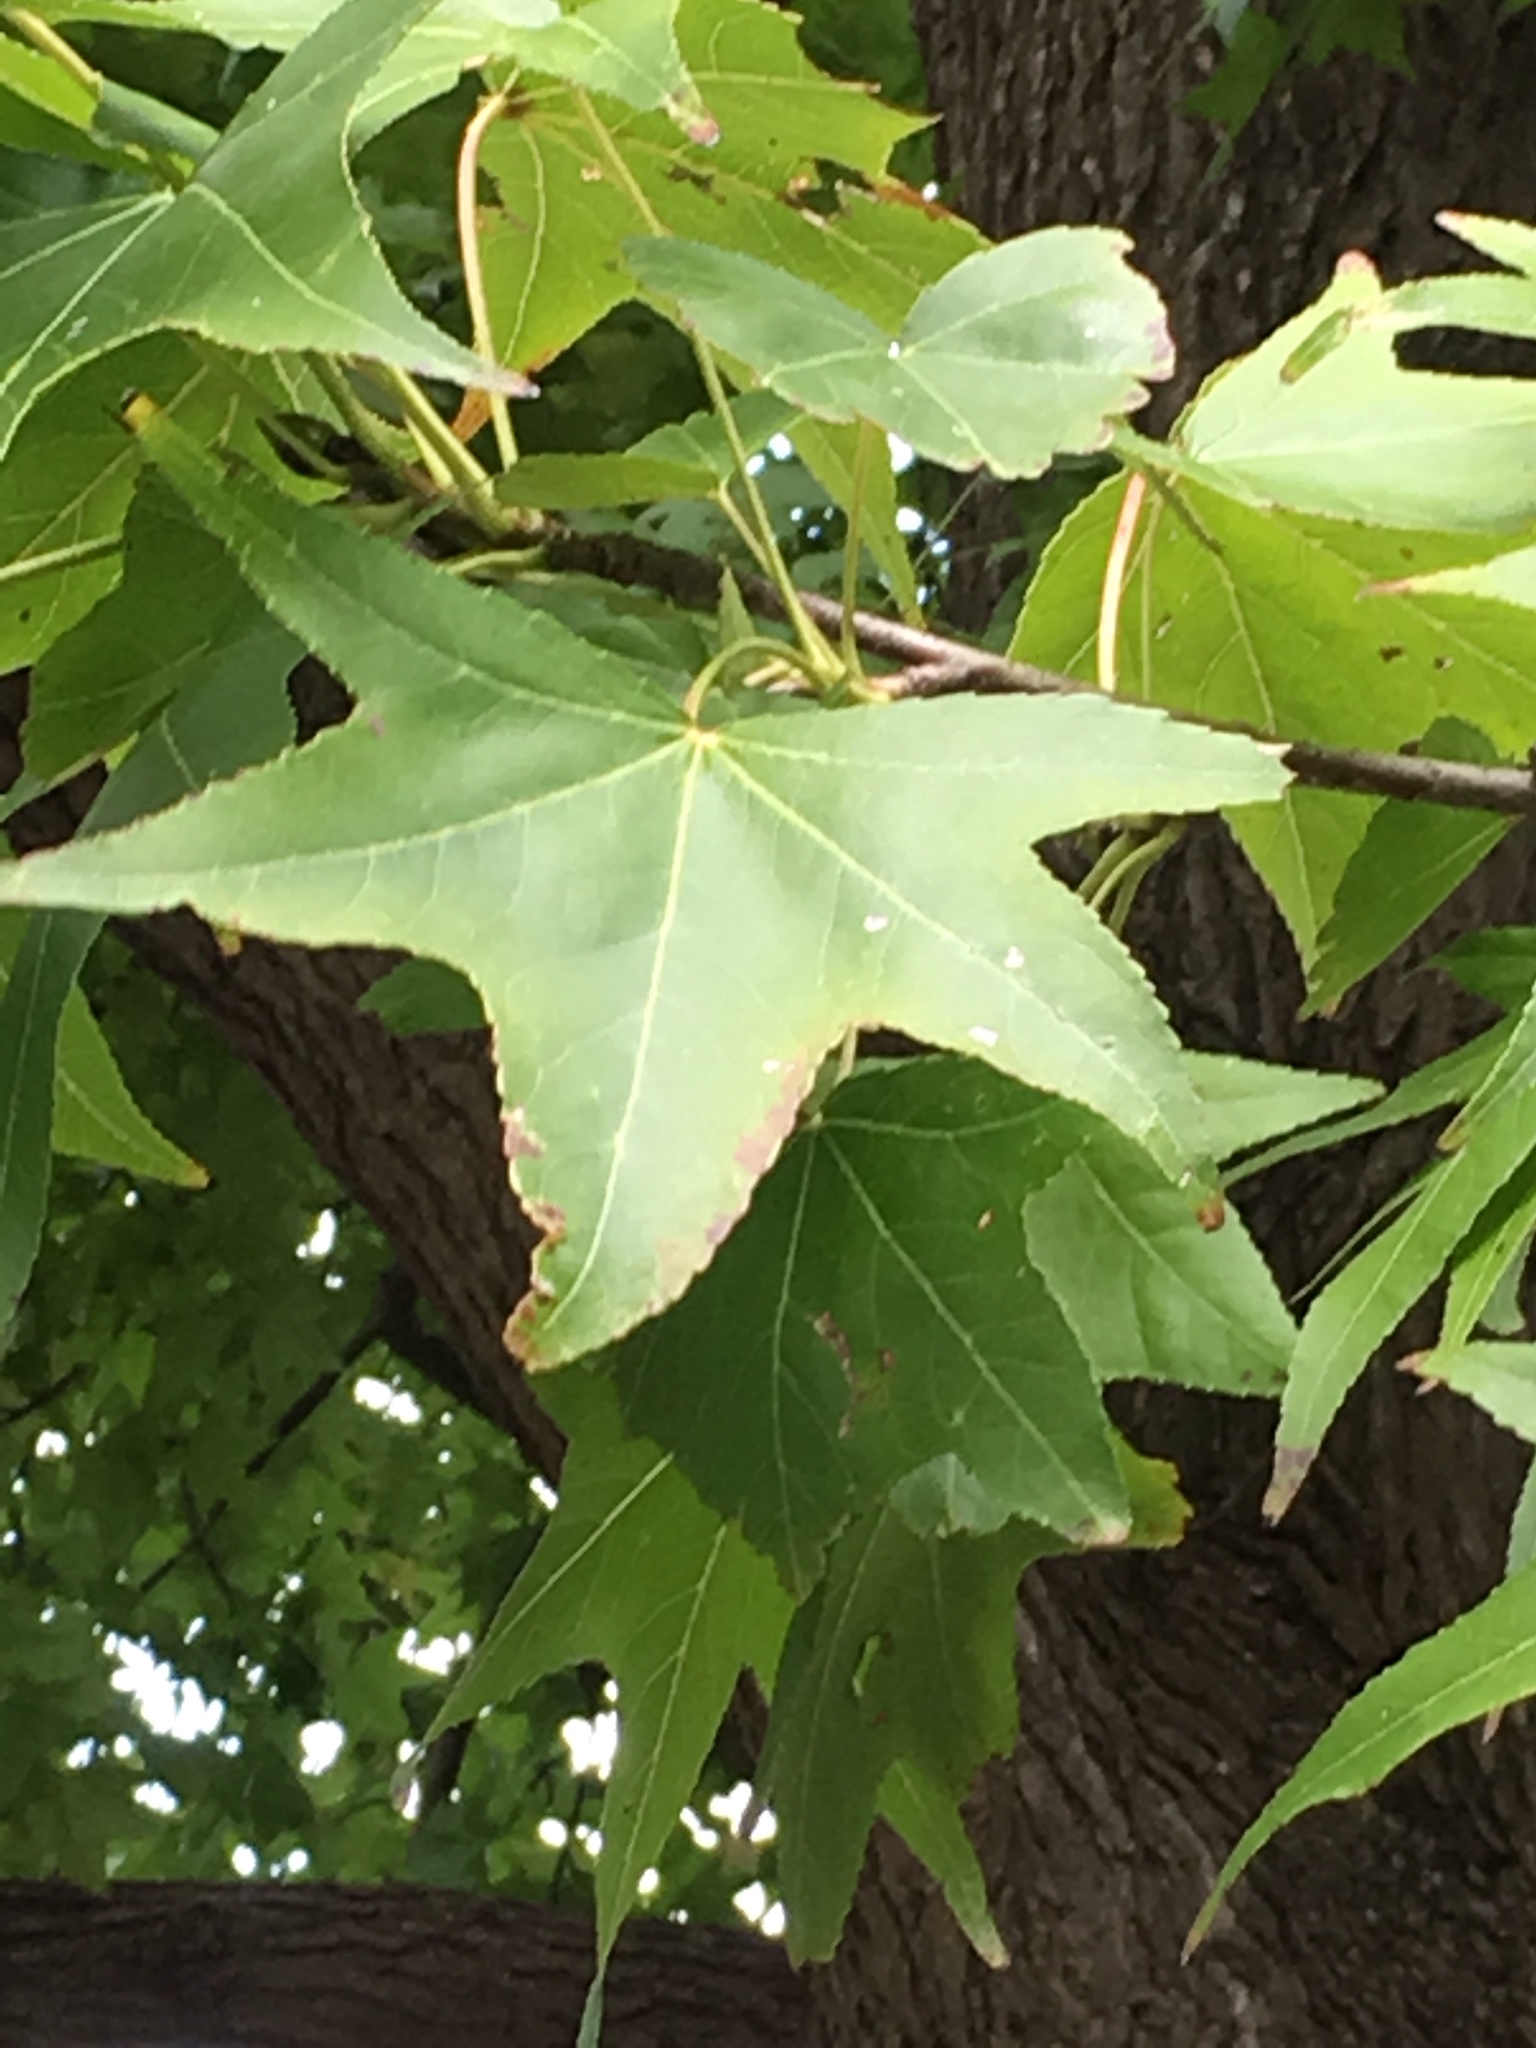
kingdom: Plantae
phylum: Tracheophyta
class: Magnoliopsida
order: Saxifragales
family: Altingiaceae
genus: Liquidambar
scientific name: Liquidambar styraciflua
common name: Sweet gum
